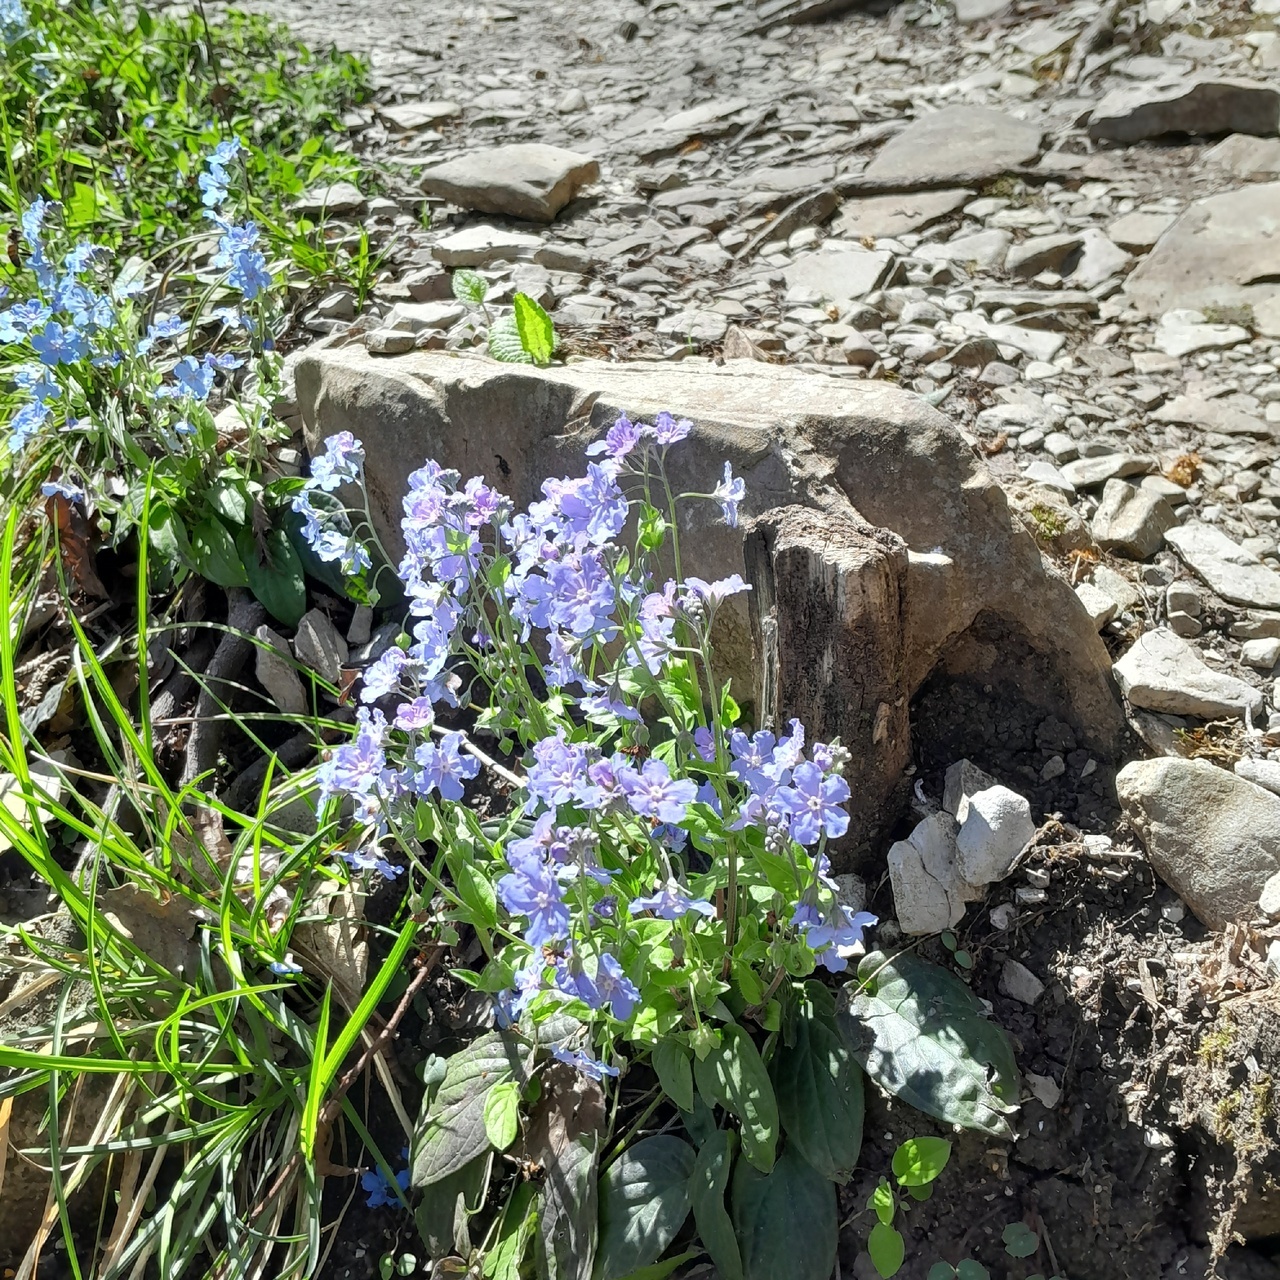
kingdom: Plantae
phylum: Tracheophyta
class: Magnoliopsida
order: Boraginales
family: Boraginaceae
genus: Omphalodes
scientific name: Omphalodes cappadocica
